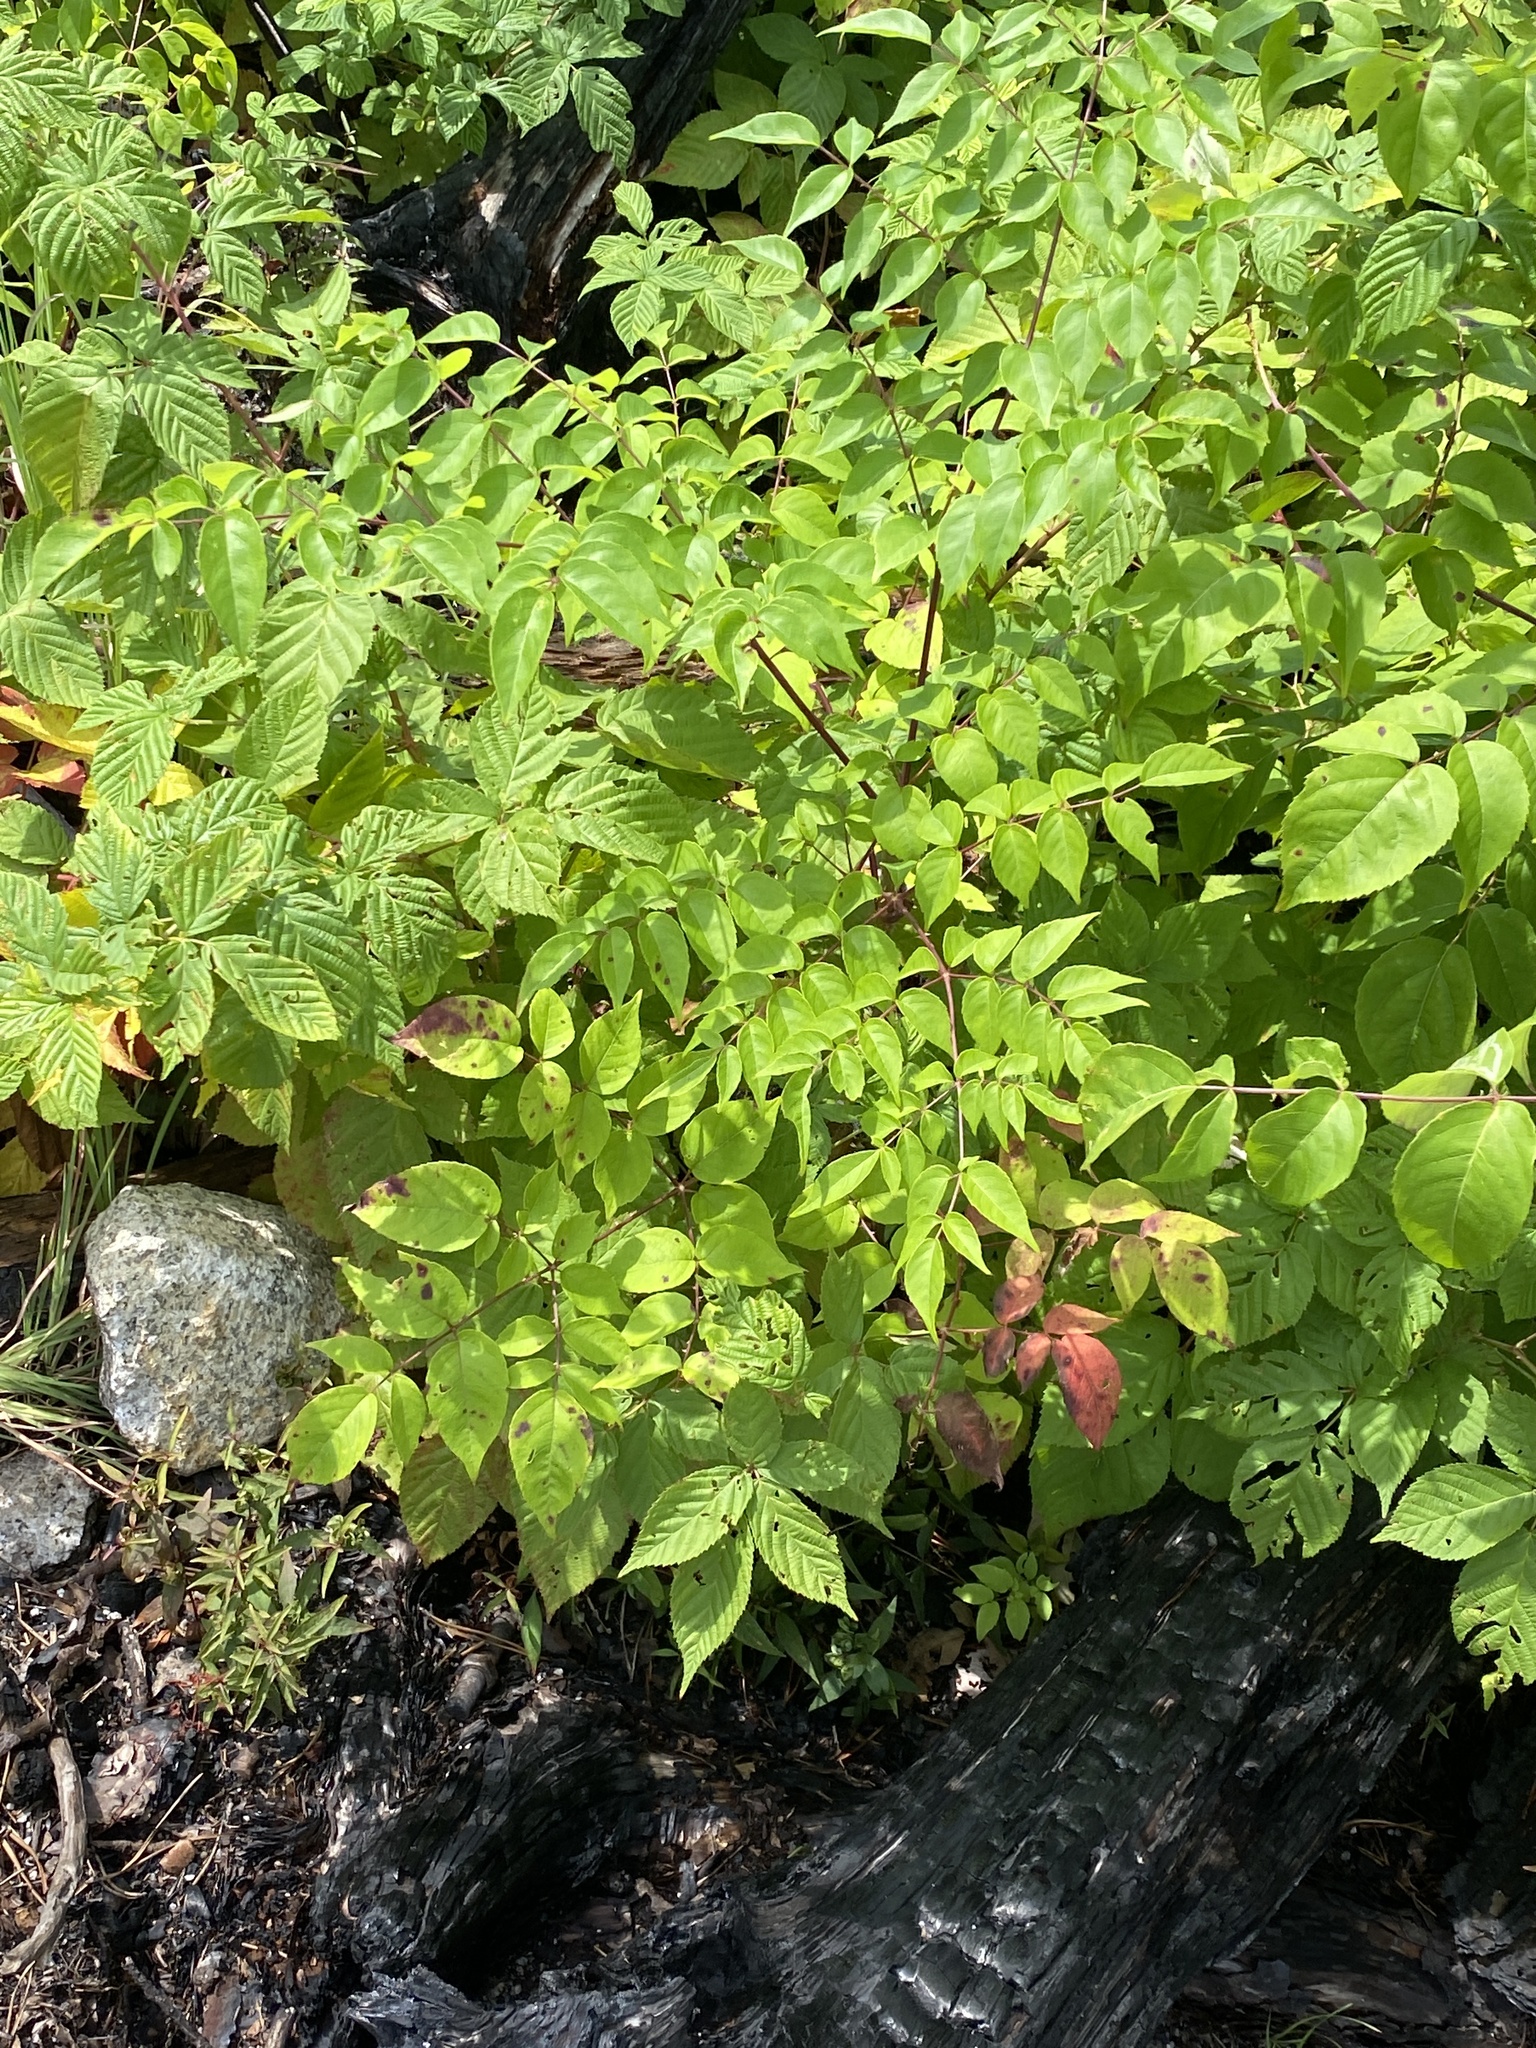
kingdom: Plantae
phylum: Tracheophyta
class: Magnoliopsida
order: Apiales
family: Araliaceae
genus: Aralia
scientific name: Aralia spinosa
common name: Hercules'-club
